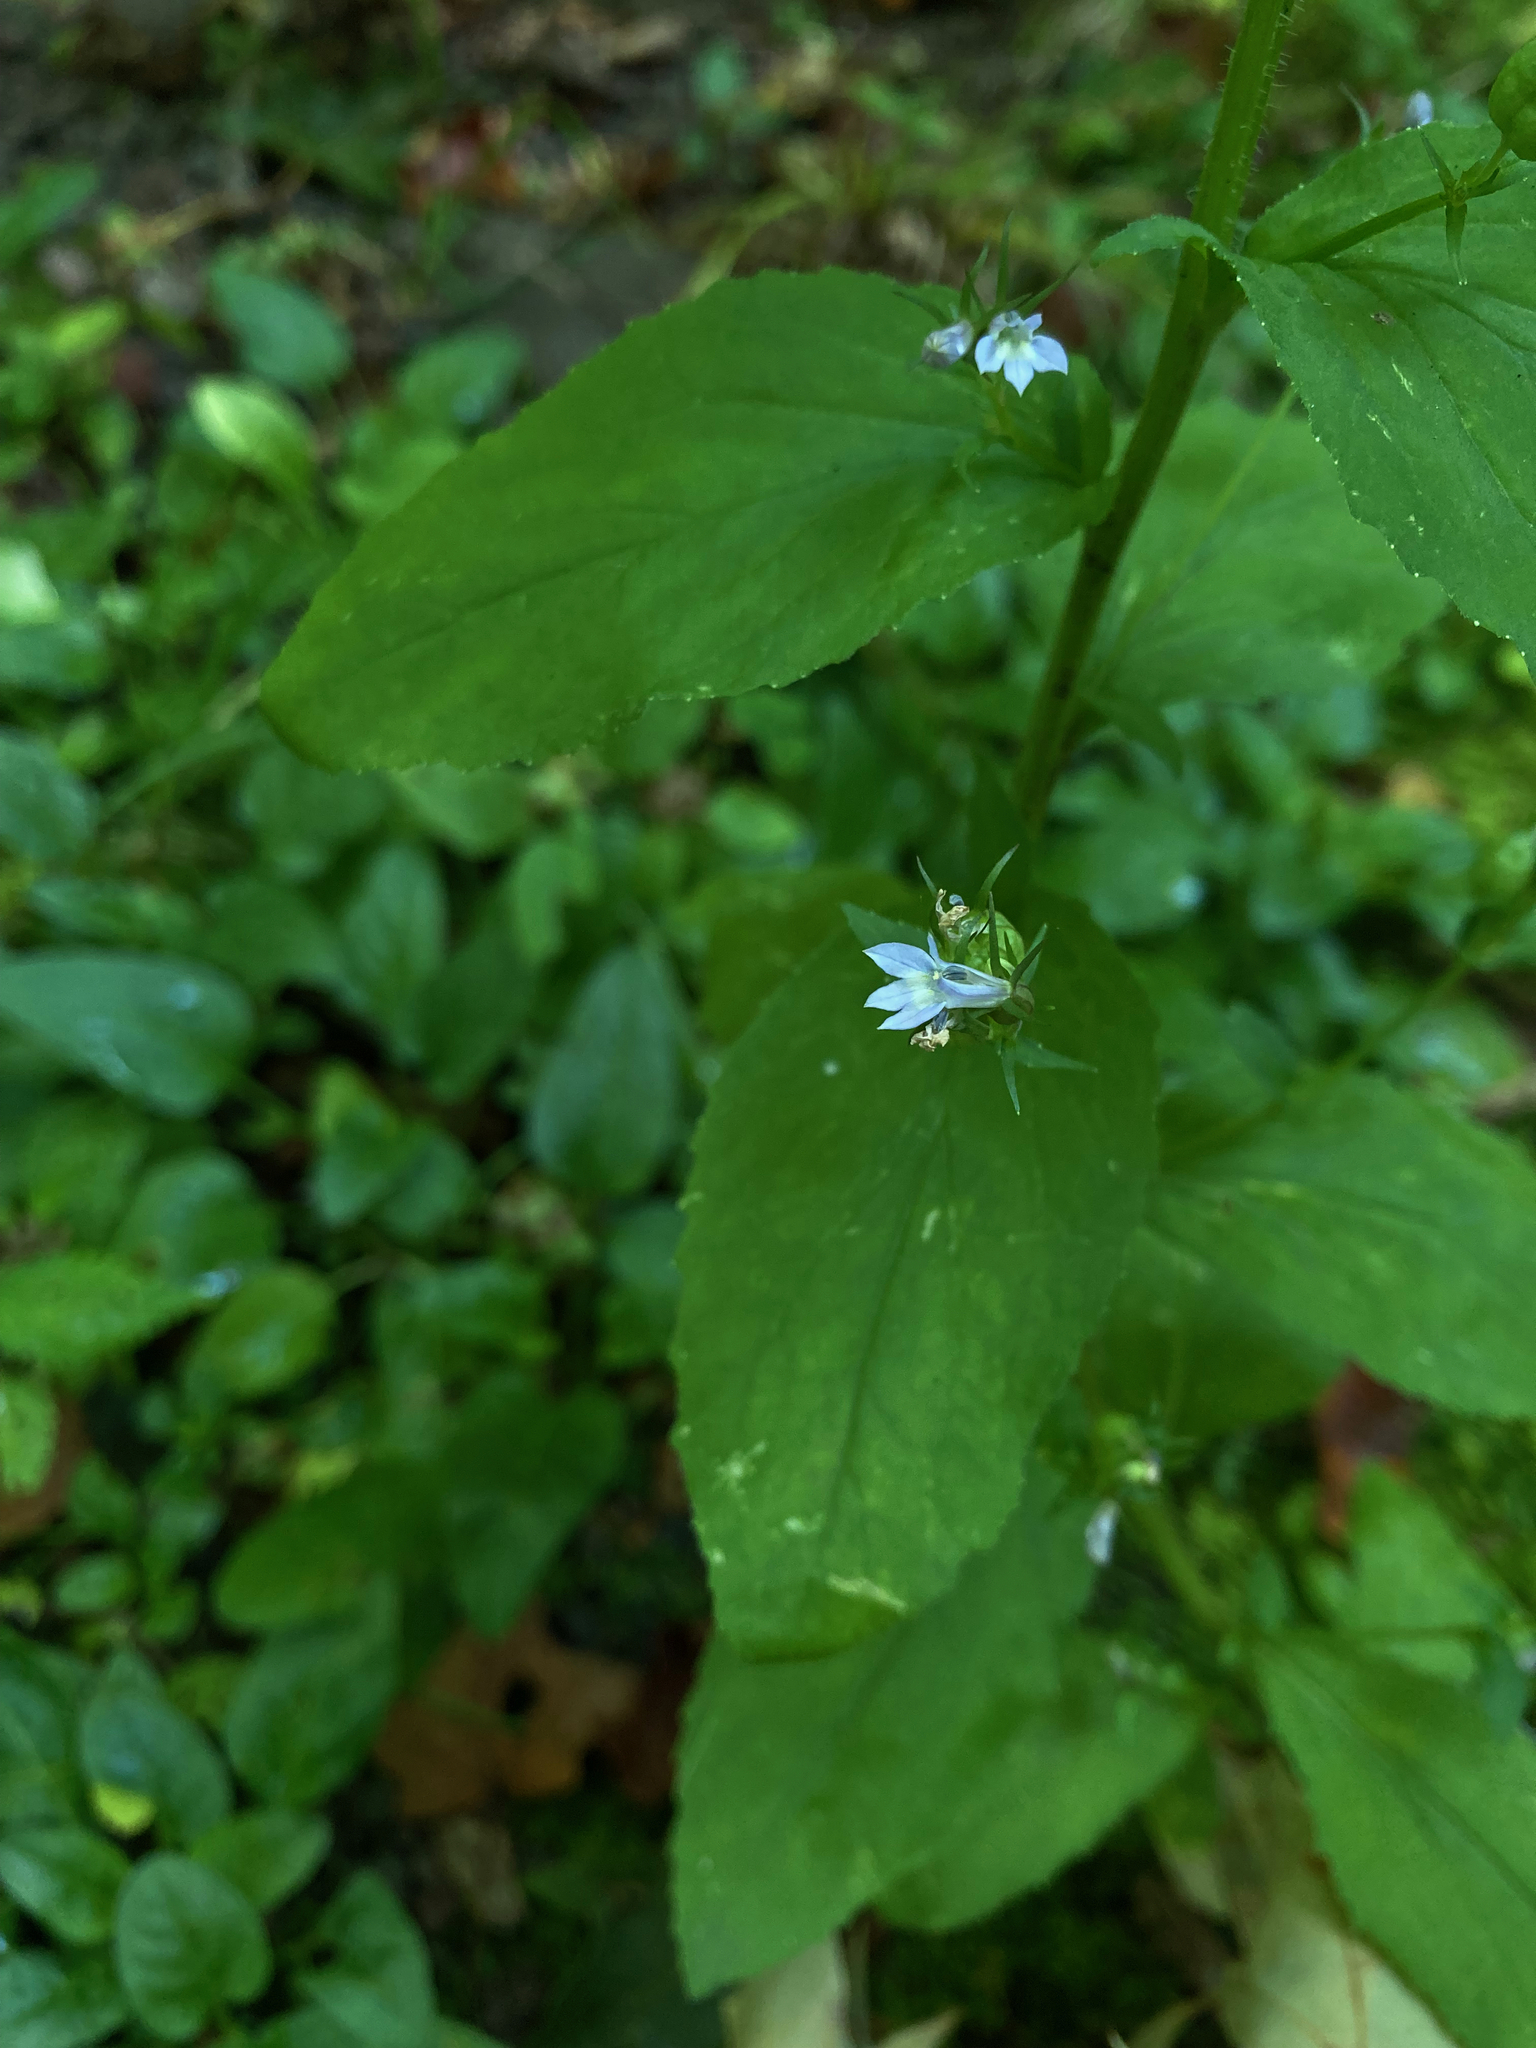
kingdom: Plantae
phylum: Tracheophyta
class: Magnoliopsida
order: Asterales
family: Campanulaceae
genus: Lobelia
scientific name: Lobelia inflata
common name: Indian tobacco
